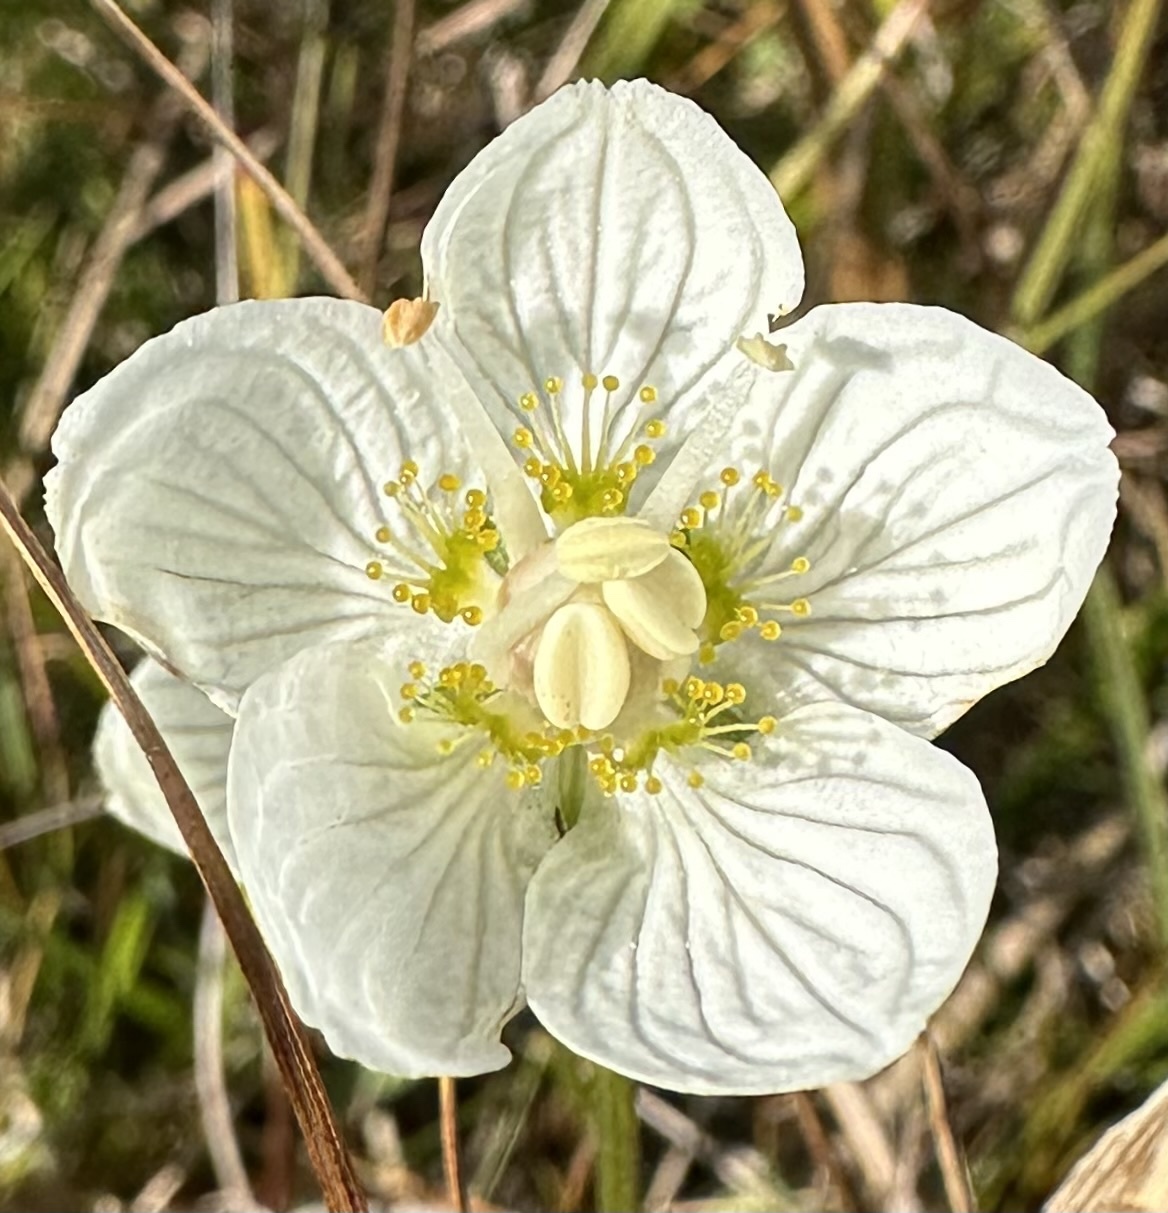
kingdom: Plantae
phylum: Tracheophyta
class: Magnoliopsida
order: Celastrales
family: Parnassiaceae
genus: Parnassia
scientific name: Parnassia palustris
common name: Grass-of-parnassus
